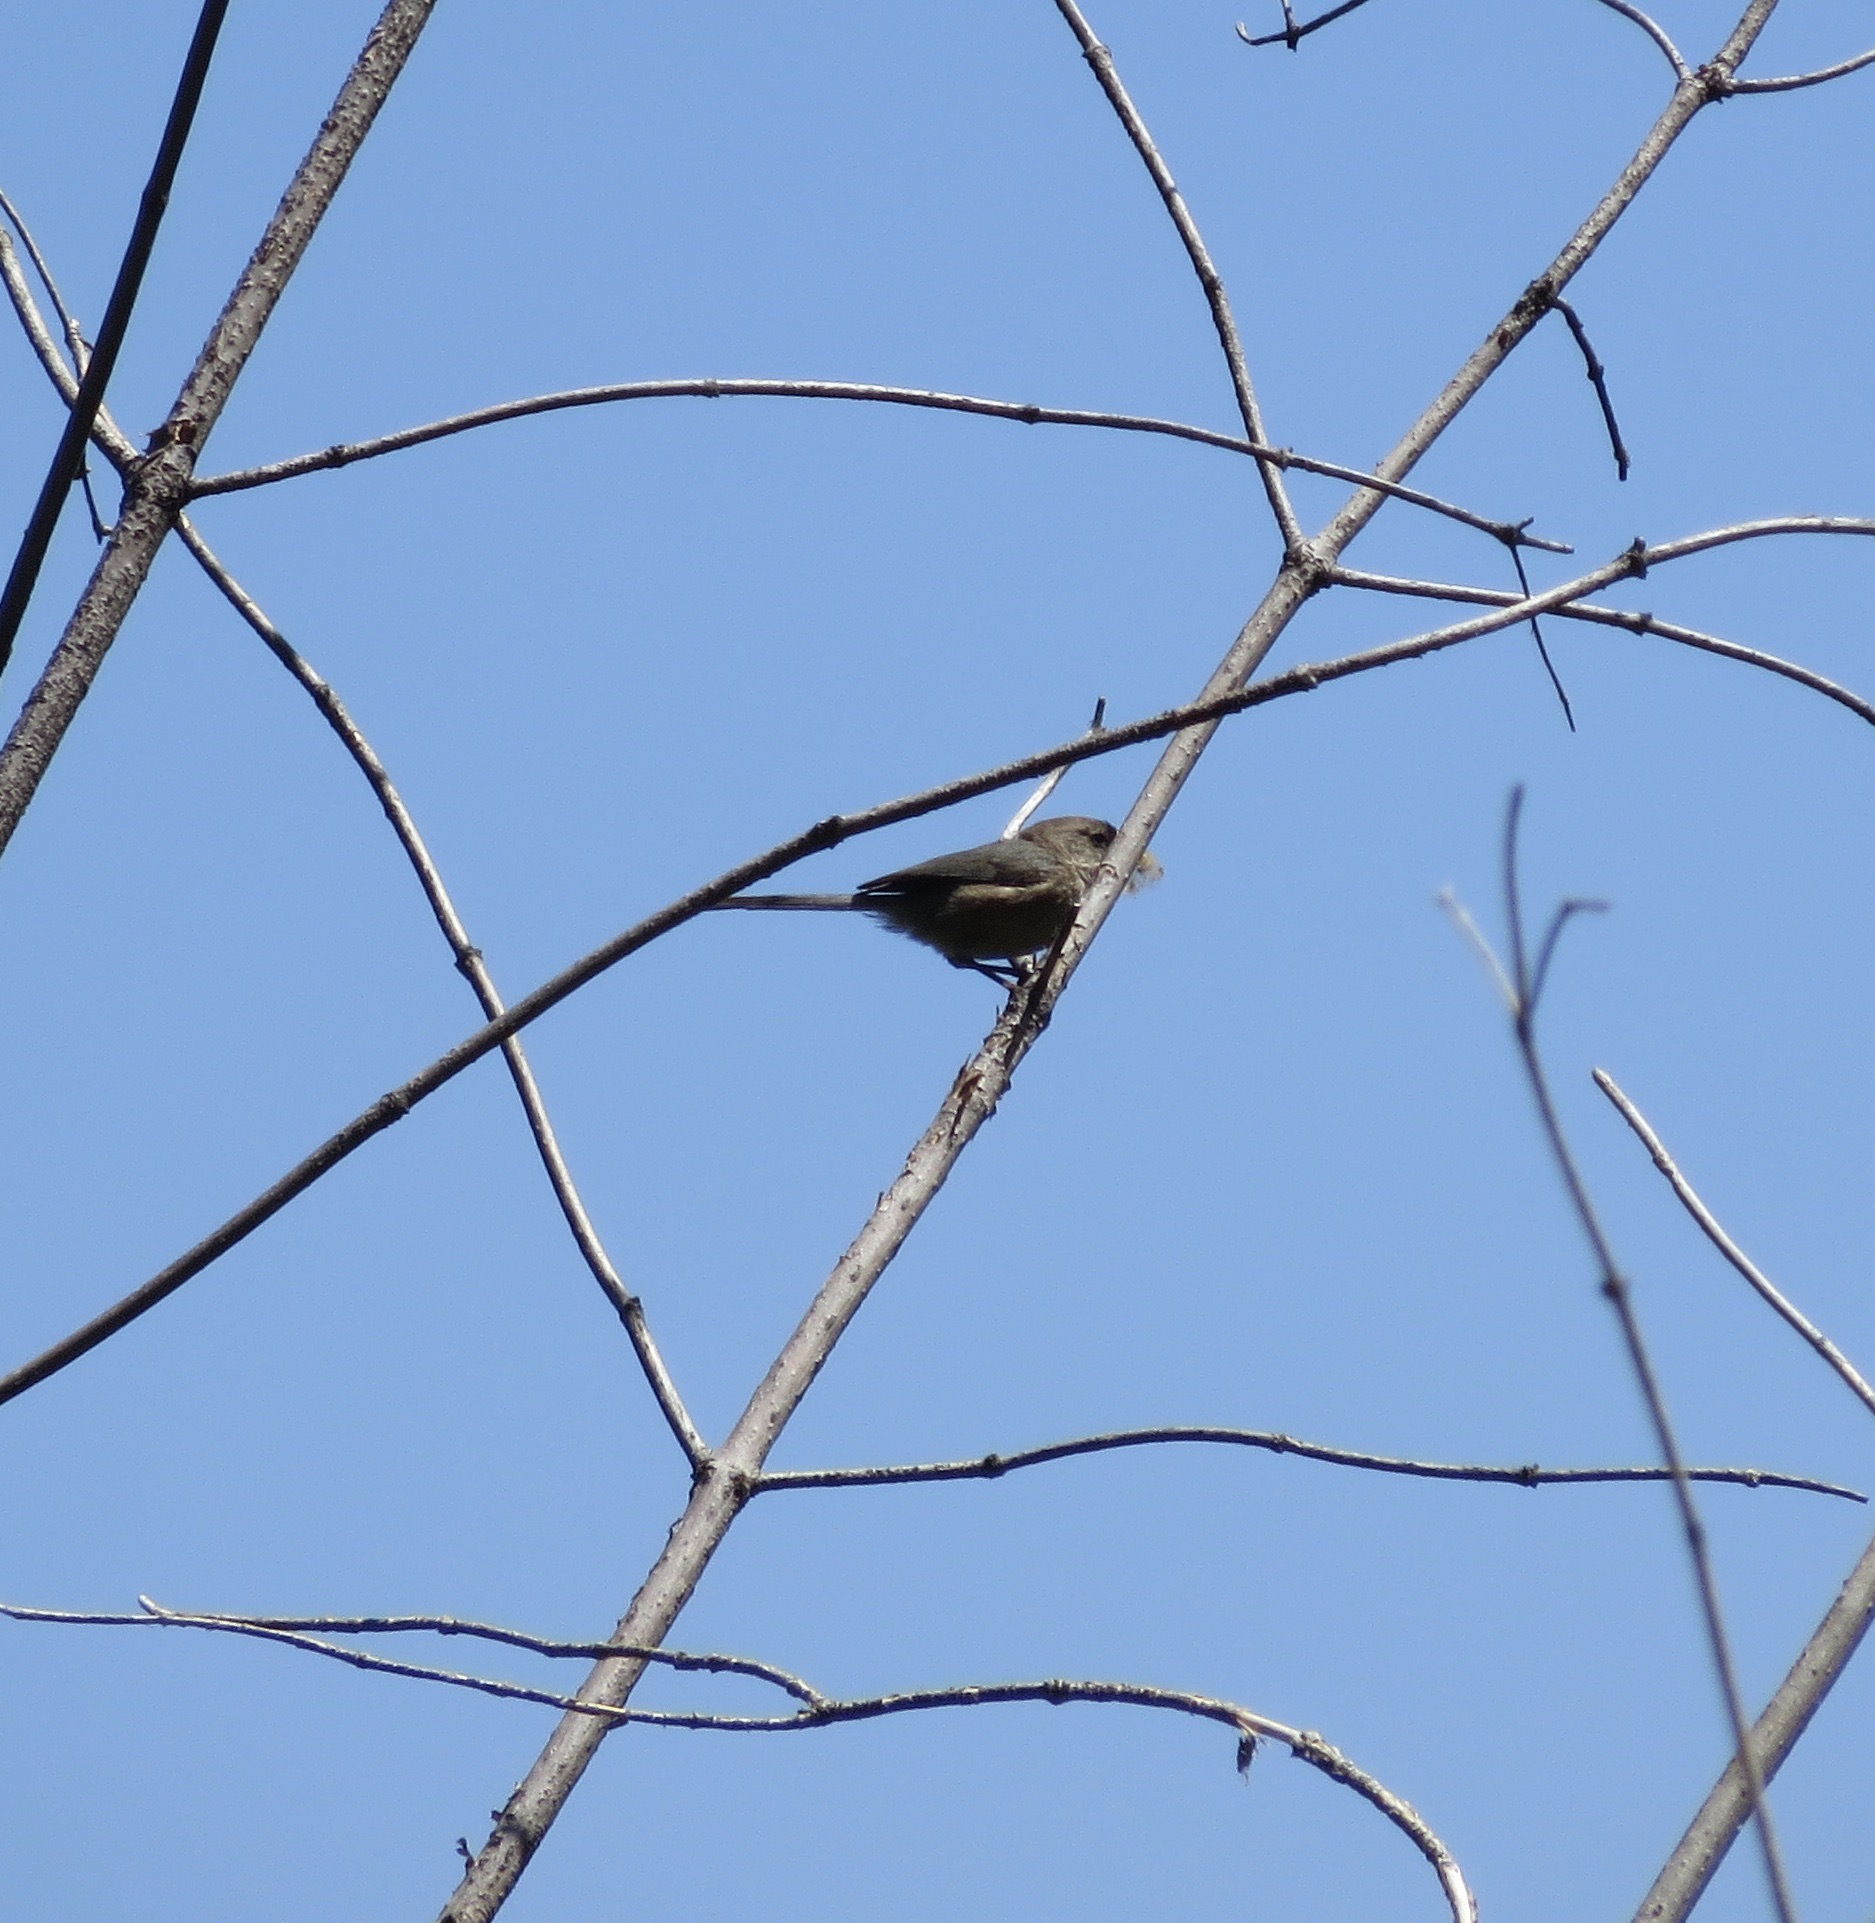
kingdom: Animalia
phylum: Chordata
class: Aves
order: Passeriformes
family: Aegithalidae
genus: Psaltriparus
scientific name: Psaltriparus minimus
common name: American bushtit
